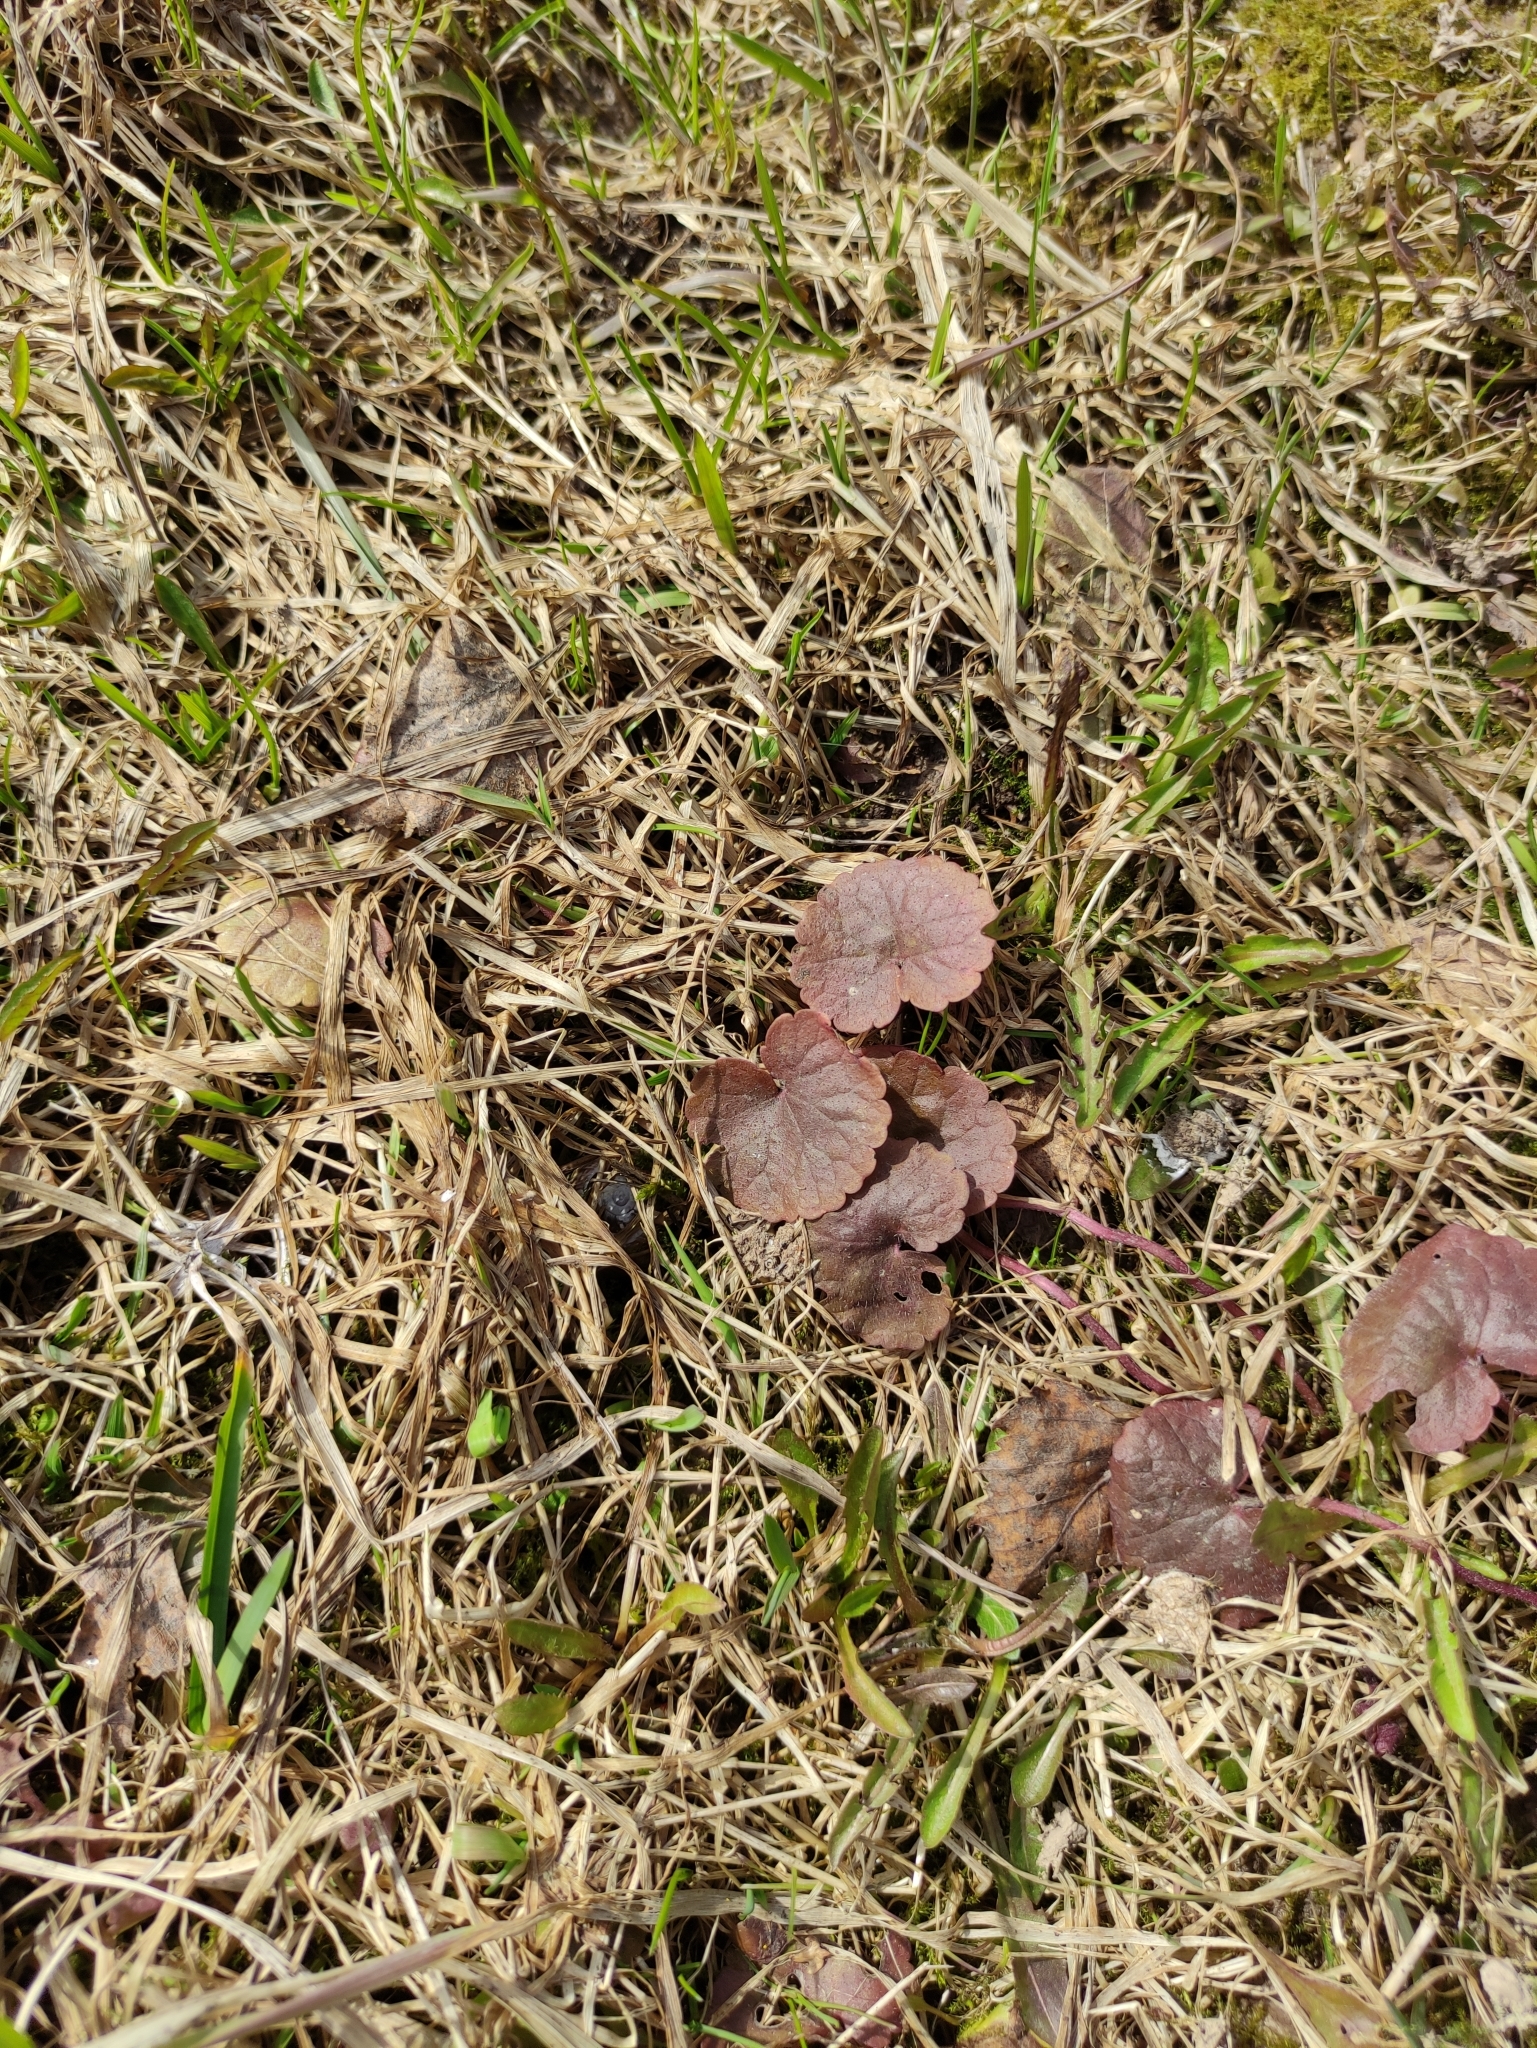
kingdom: Plantae
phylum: Tracheophyta
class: Magnoliopsida
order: Lamiales
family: Lamiaceae
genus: Glechoma
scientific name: Glechoma hederacea
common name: Ground ivy
